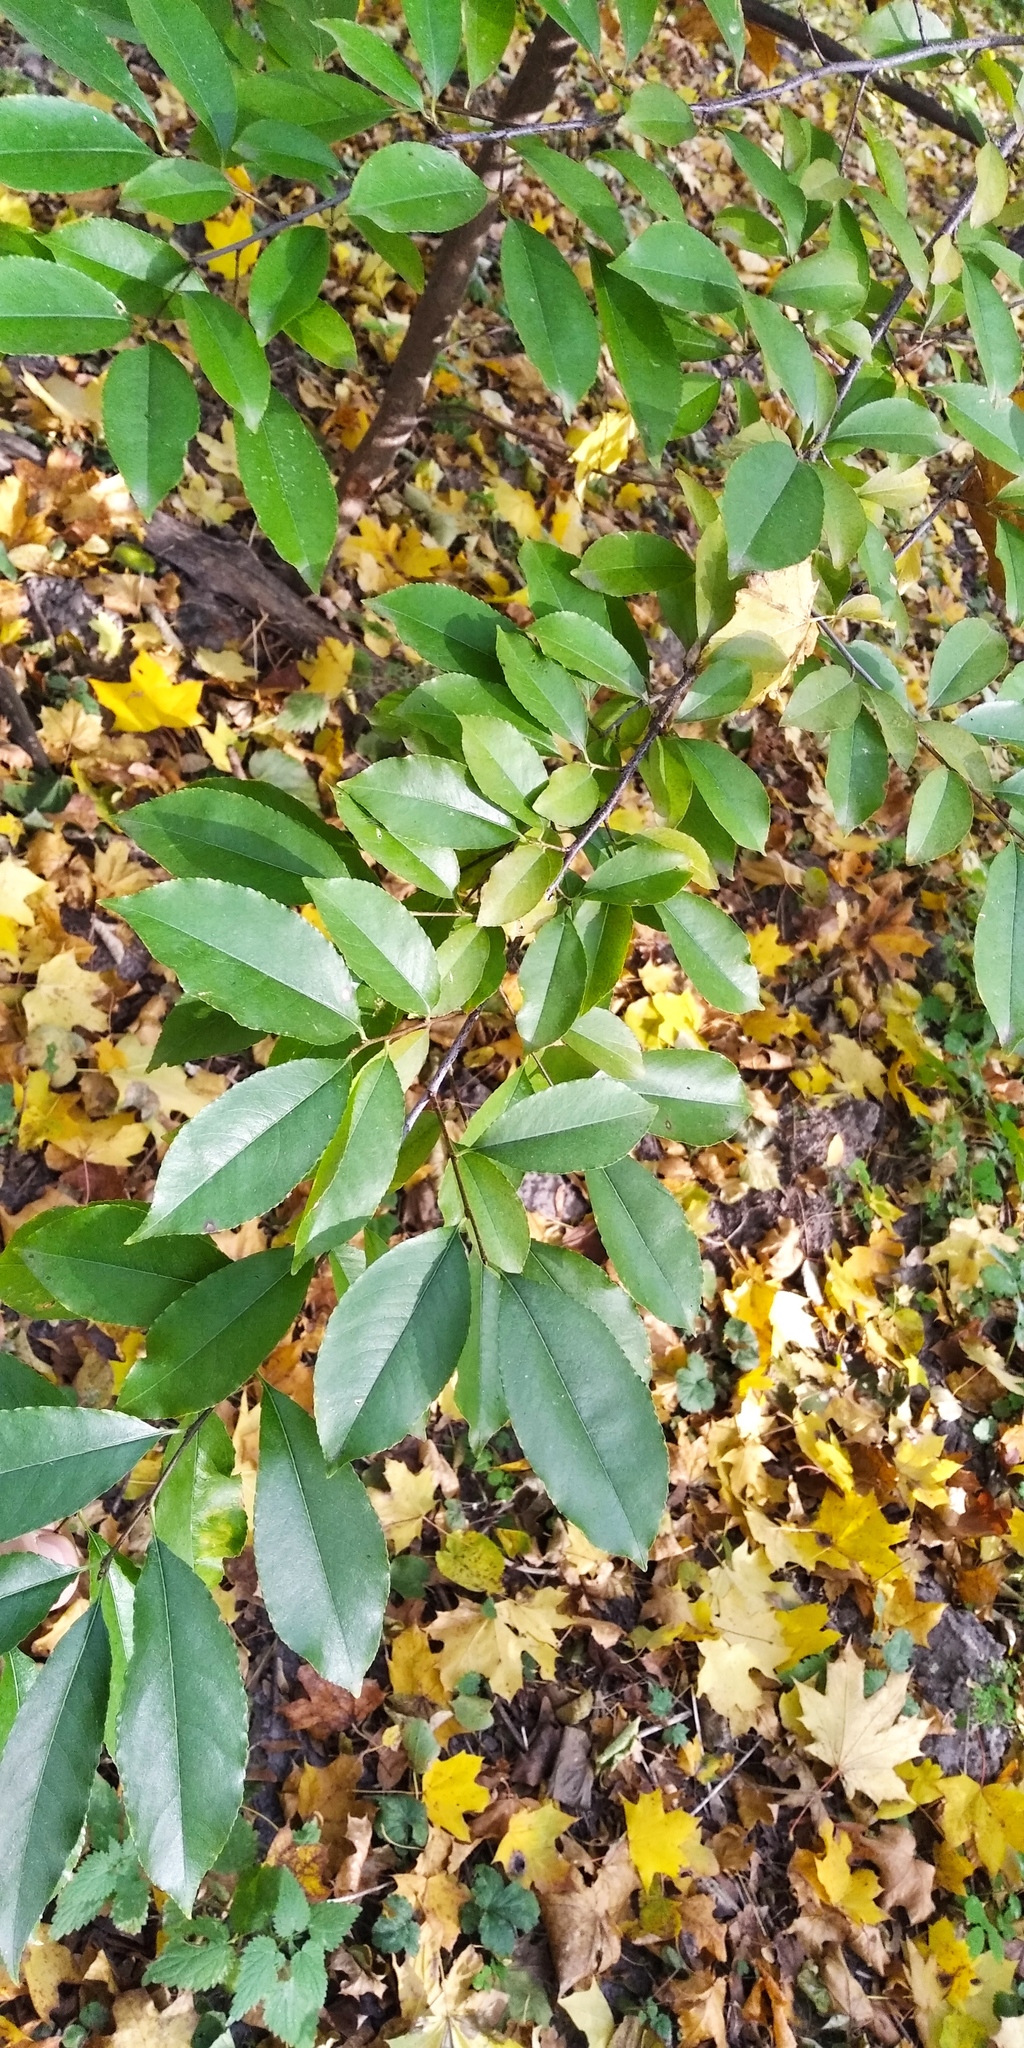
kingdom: Plantae
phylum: Tracheophyta
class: Magnoliopsida
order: Rosales
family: Rosaceae
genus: Prunus
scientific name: Prunus serotina
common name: Black cherry
